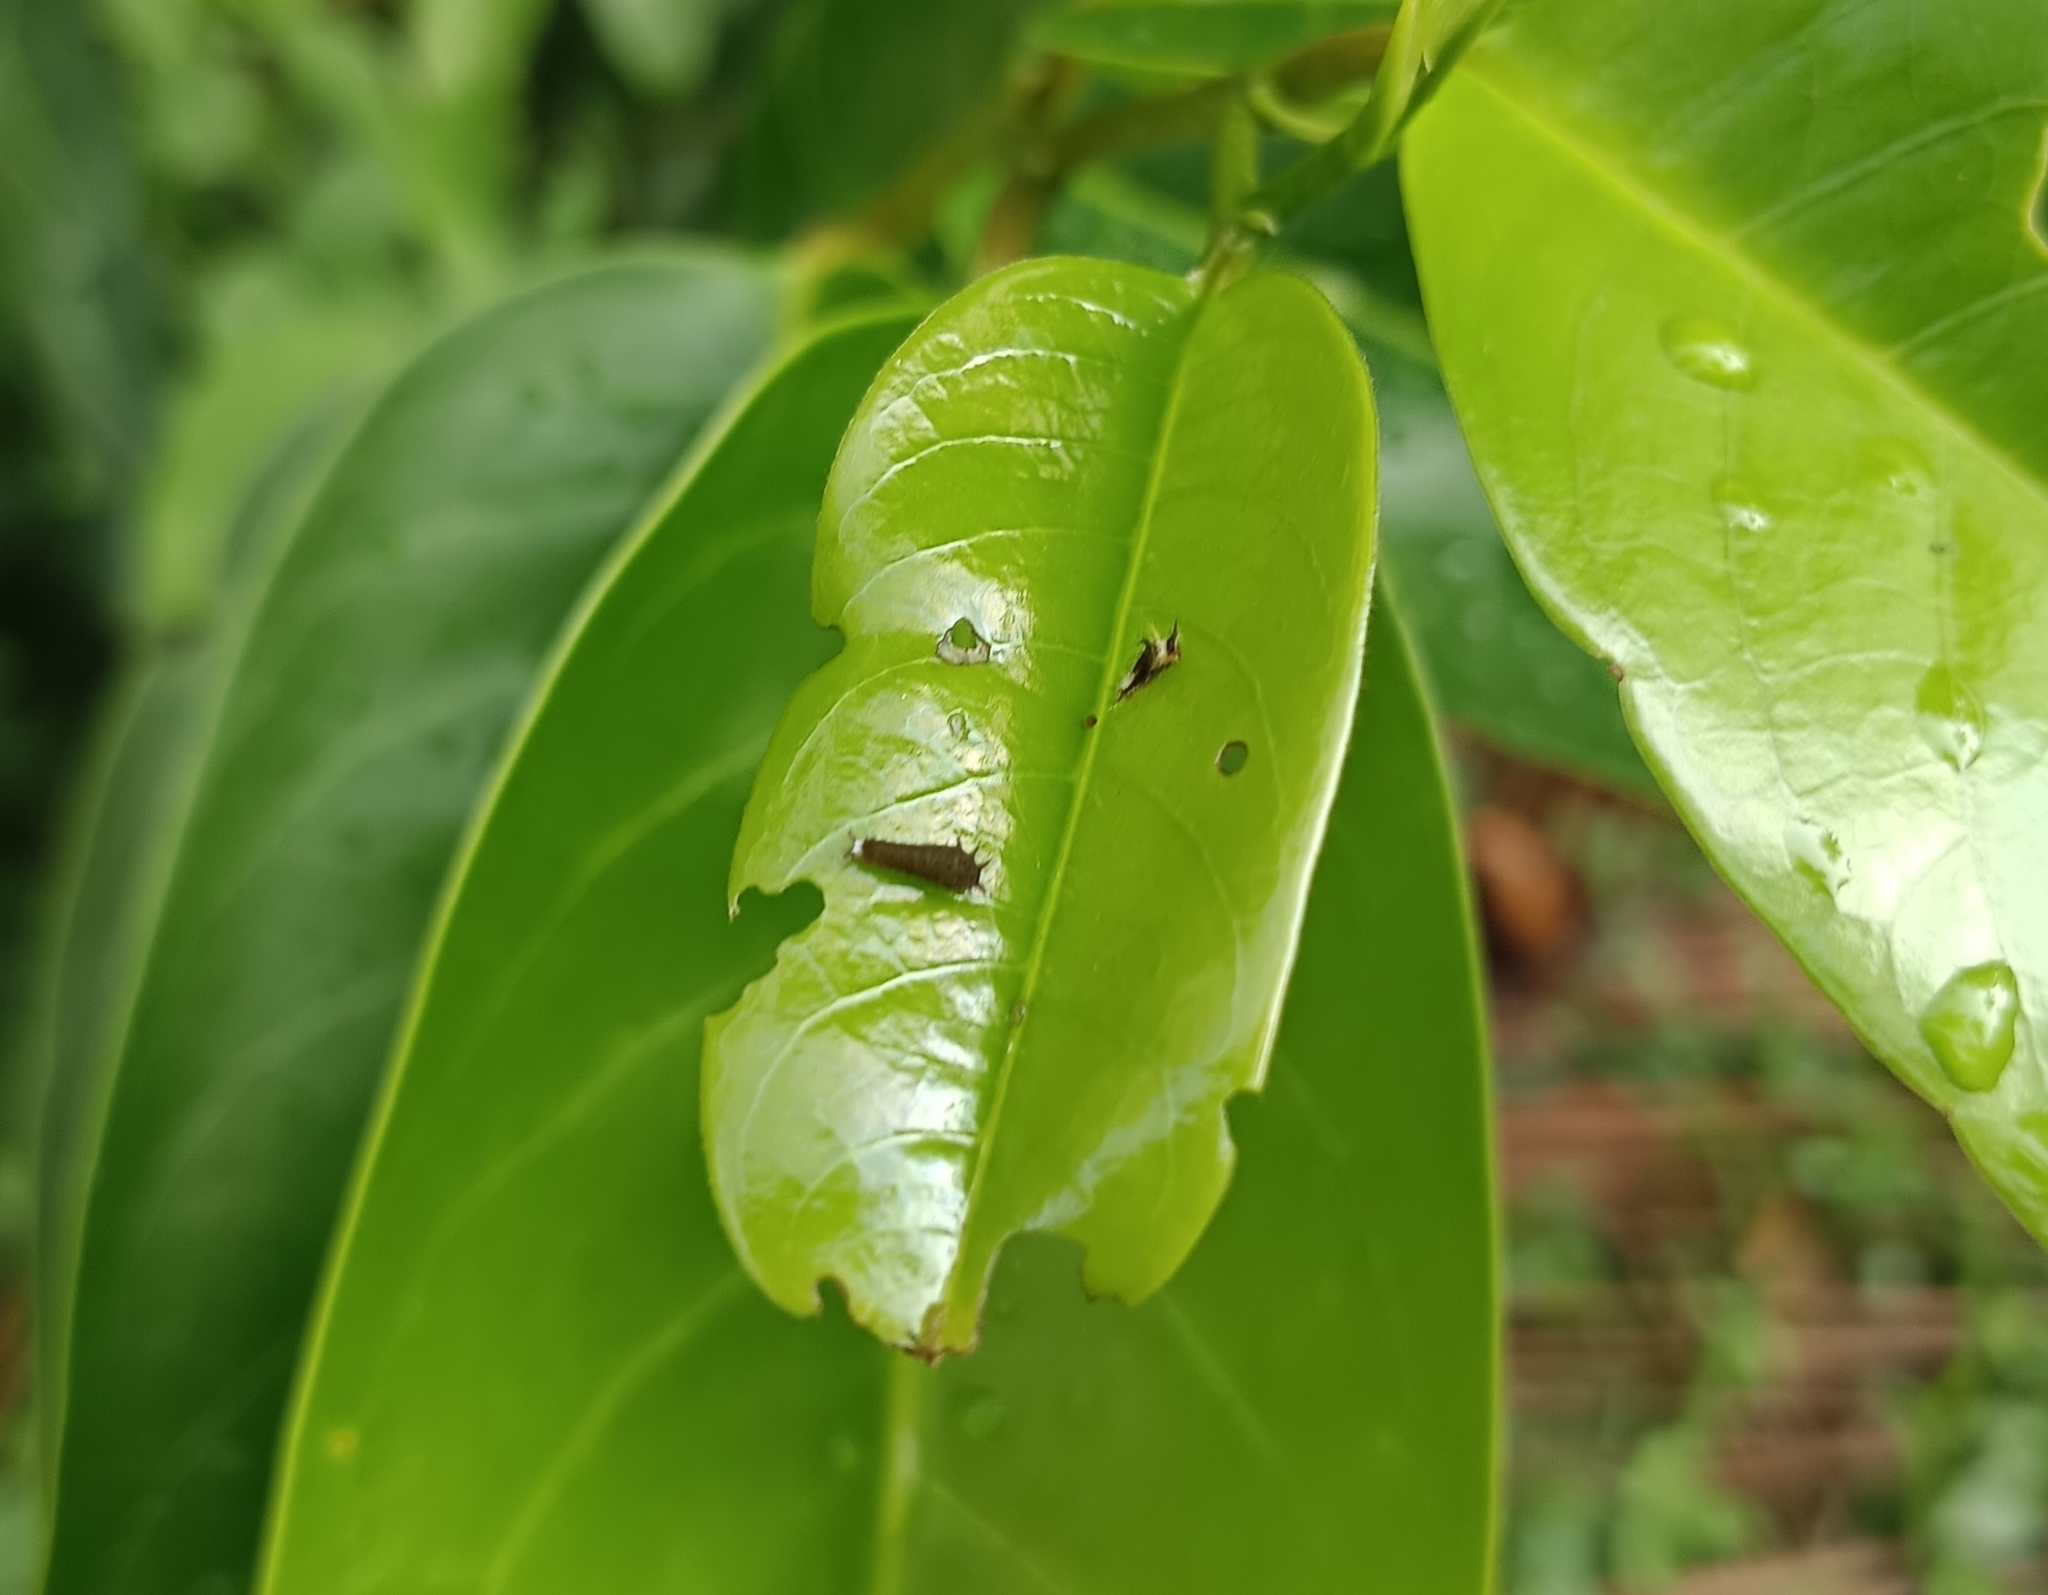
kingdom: Animalia
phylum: Arthropoda
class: Insecta
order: Lepidoptera
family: Papilionidae
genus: Graphium
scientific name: Graphium doson
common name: Common jay
